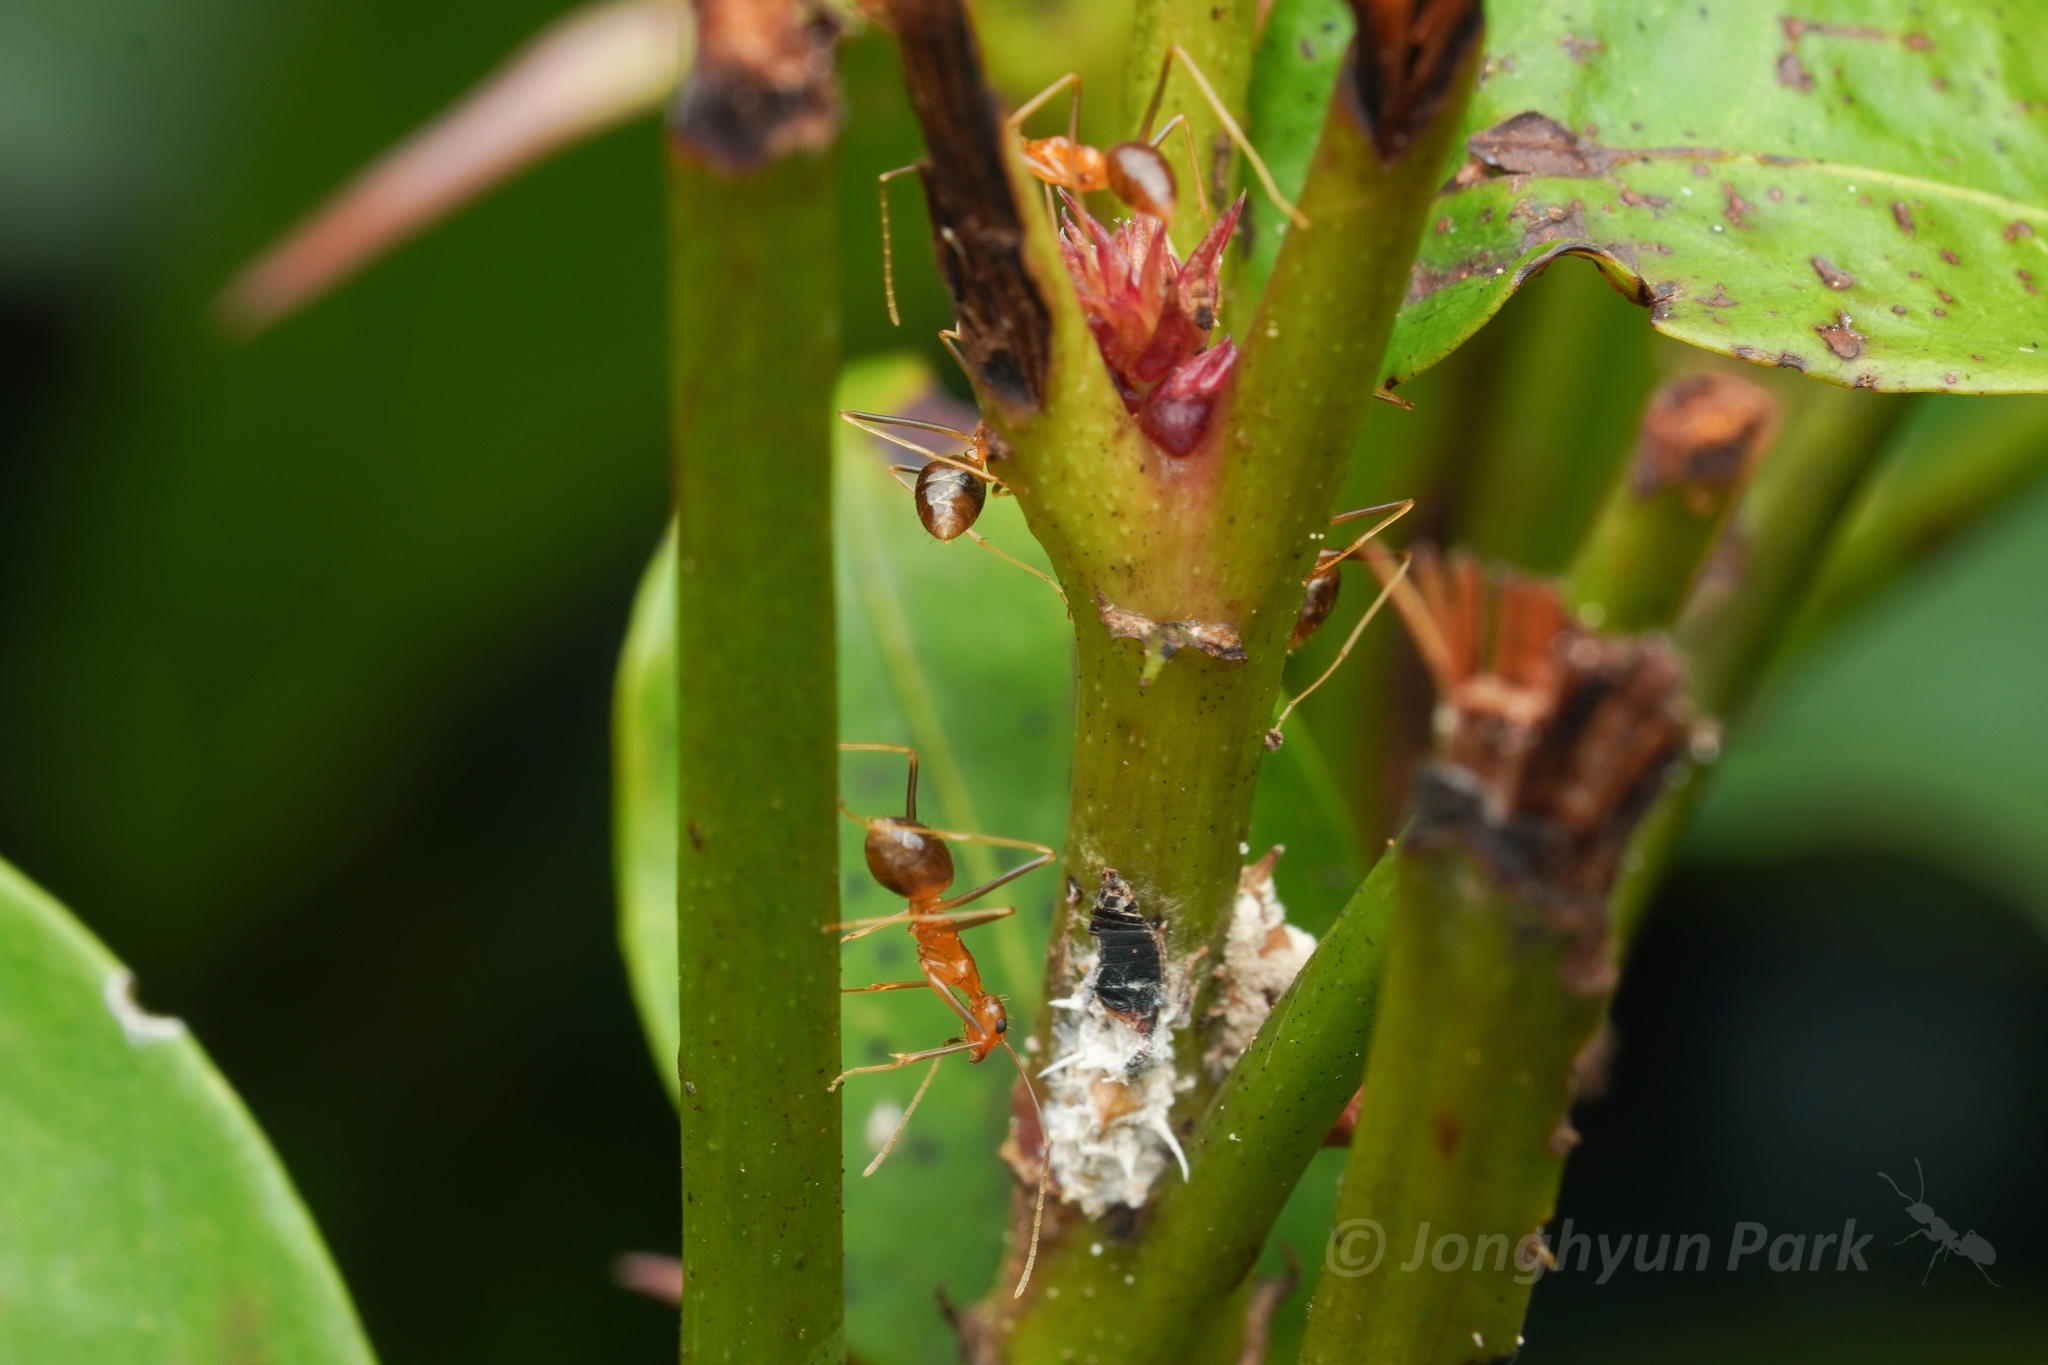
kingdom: Animalia
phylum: Arthropoda
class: Insecta
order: Hymenoptera
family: Formicidae
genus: Anoplolepis
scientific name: Anoplolepis gracilipes
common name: Ant
